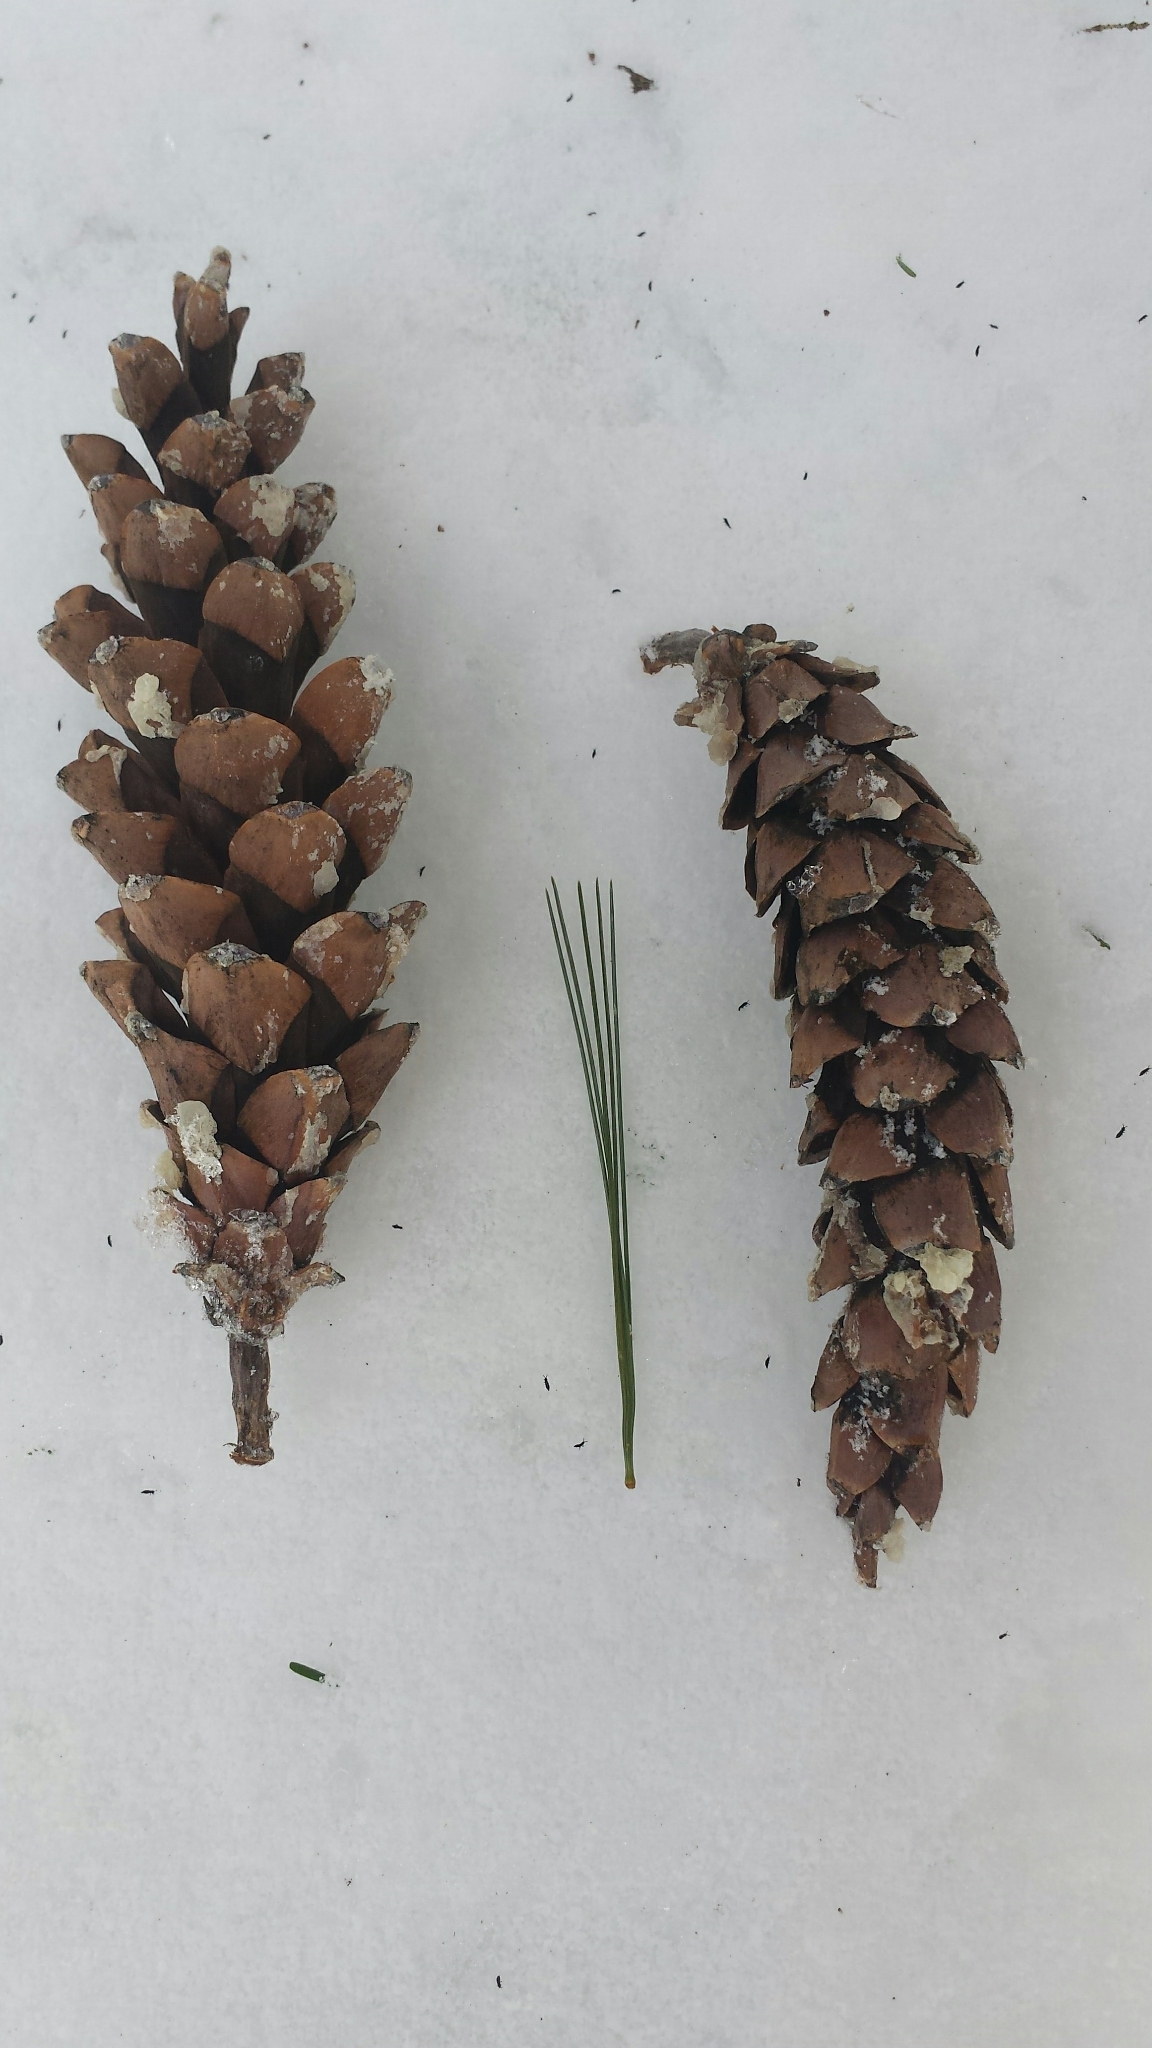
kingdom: Plantae
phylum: Tracheophyta
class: Pinopsida
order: Pinales
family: Pinaceae
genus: Pinus
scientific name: Pinus strobus
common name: Weymouth pine
